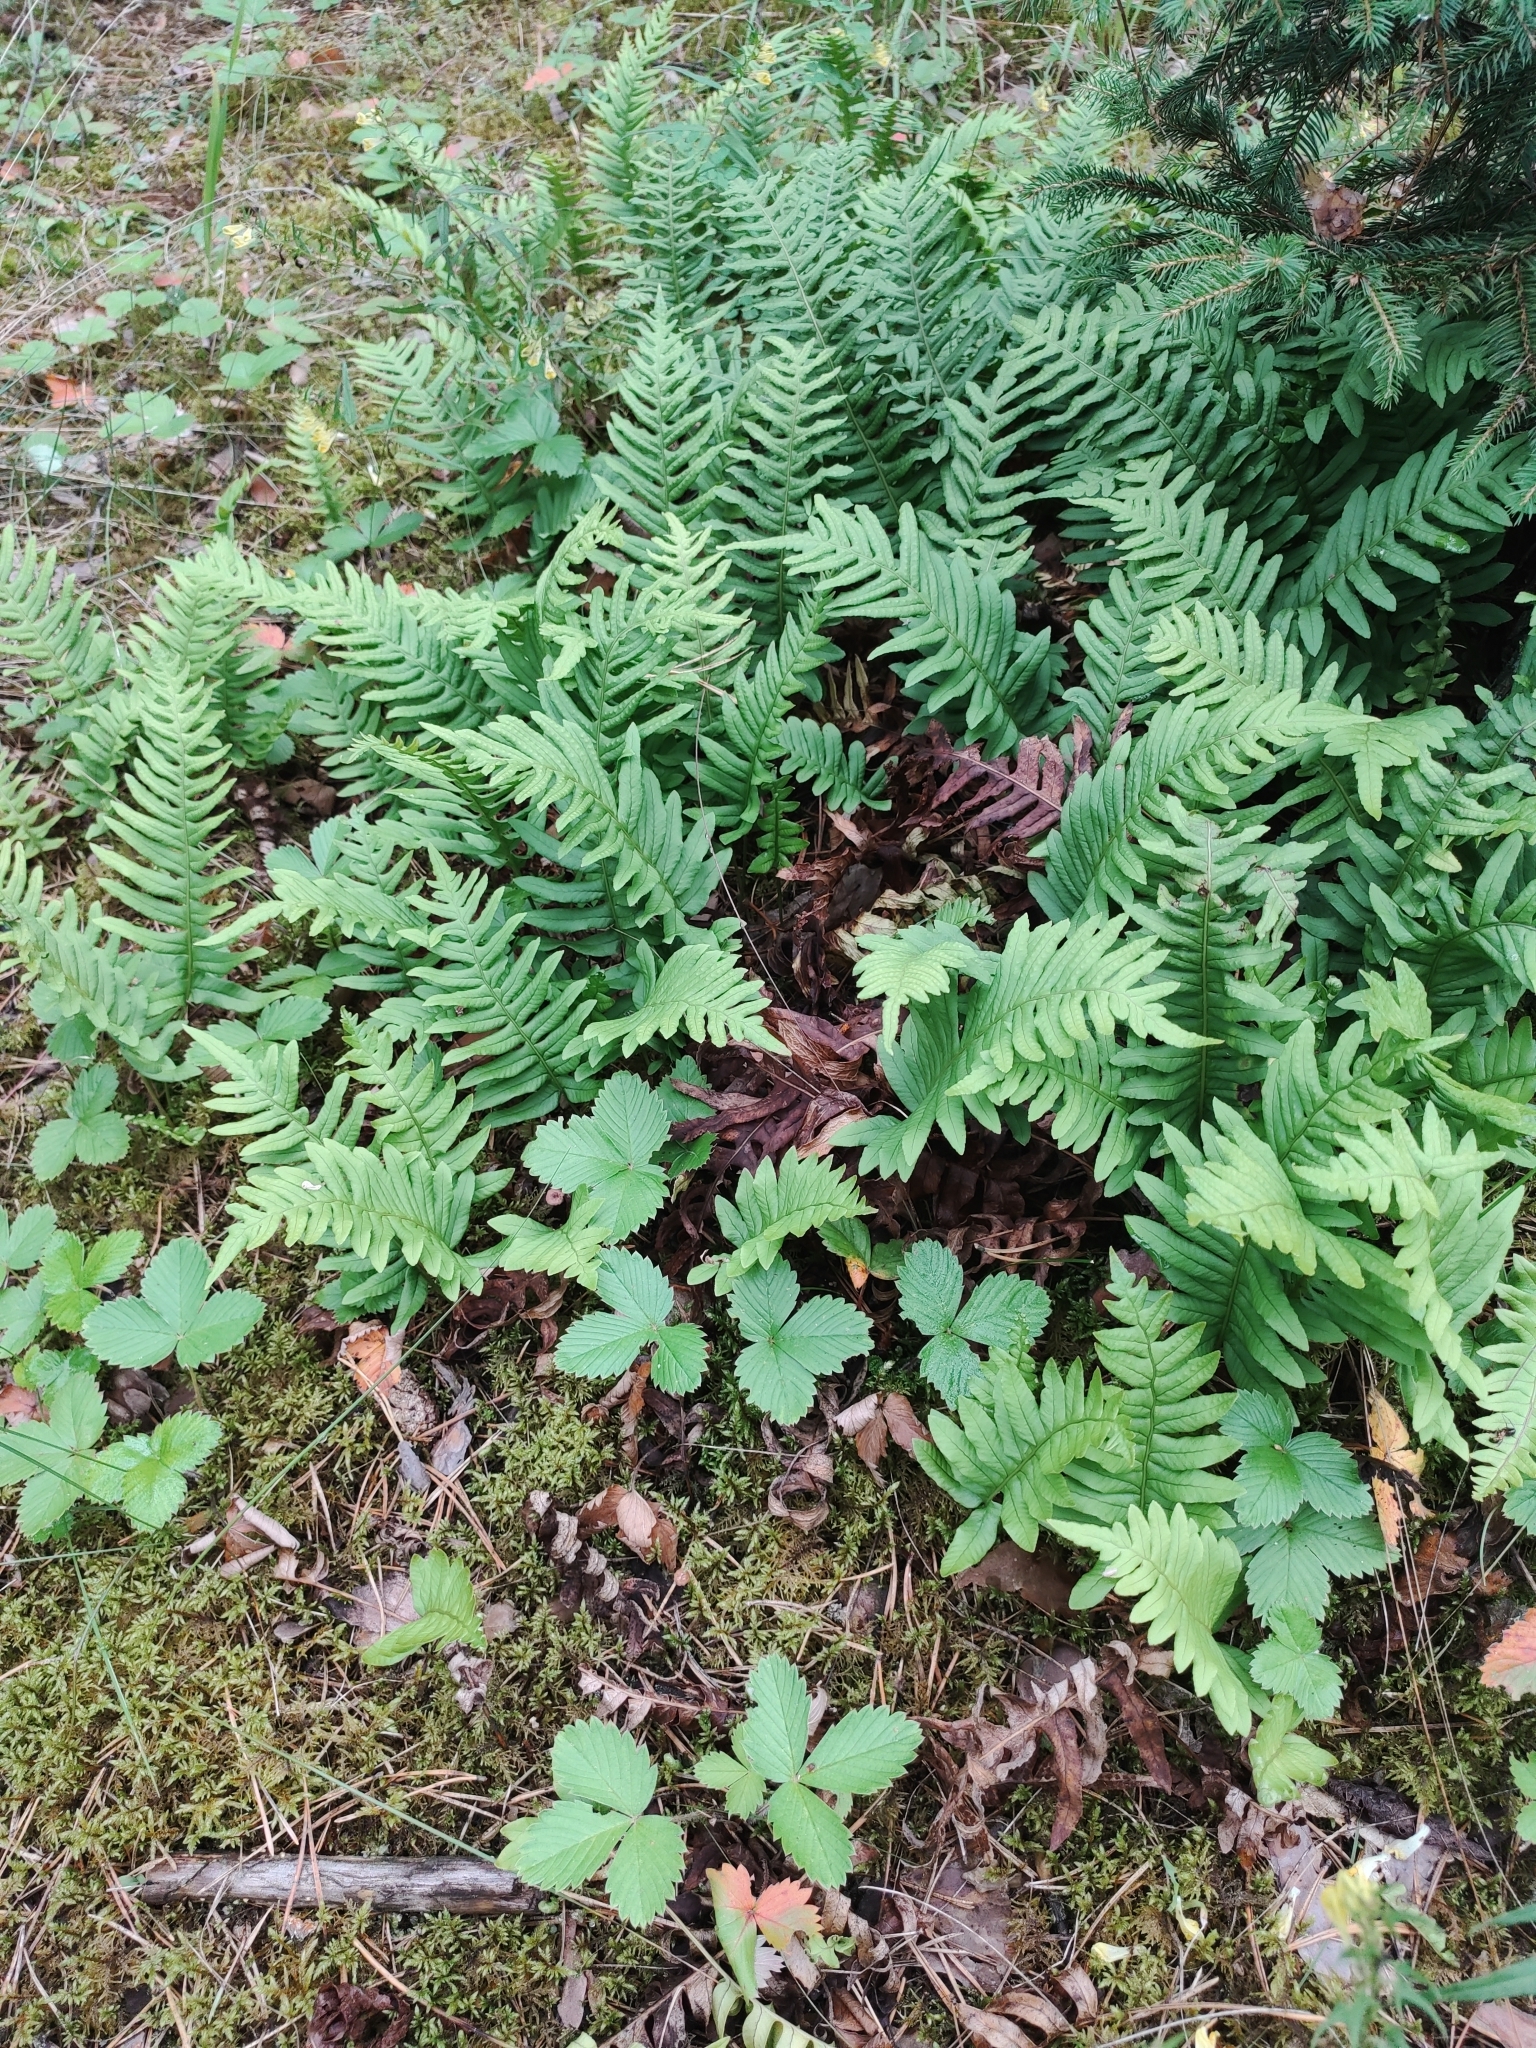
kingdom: Plantae
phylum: Tracheophyta
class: Polypodiopsida
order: Polypodiales
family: Polypodiaceae
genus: Polypodium
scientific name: Polypodium vulgare
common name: Common polypody
